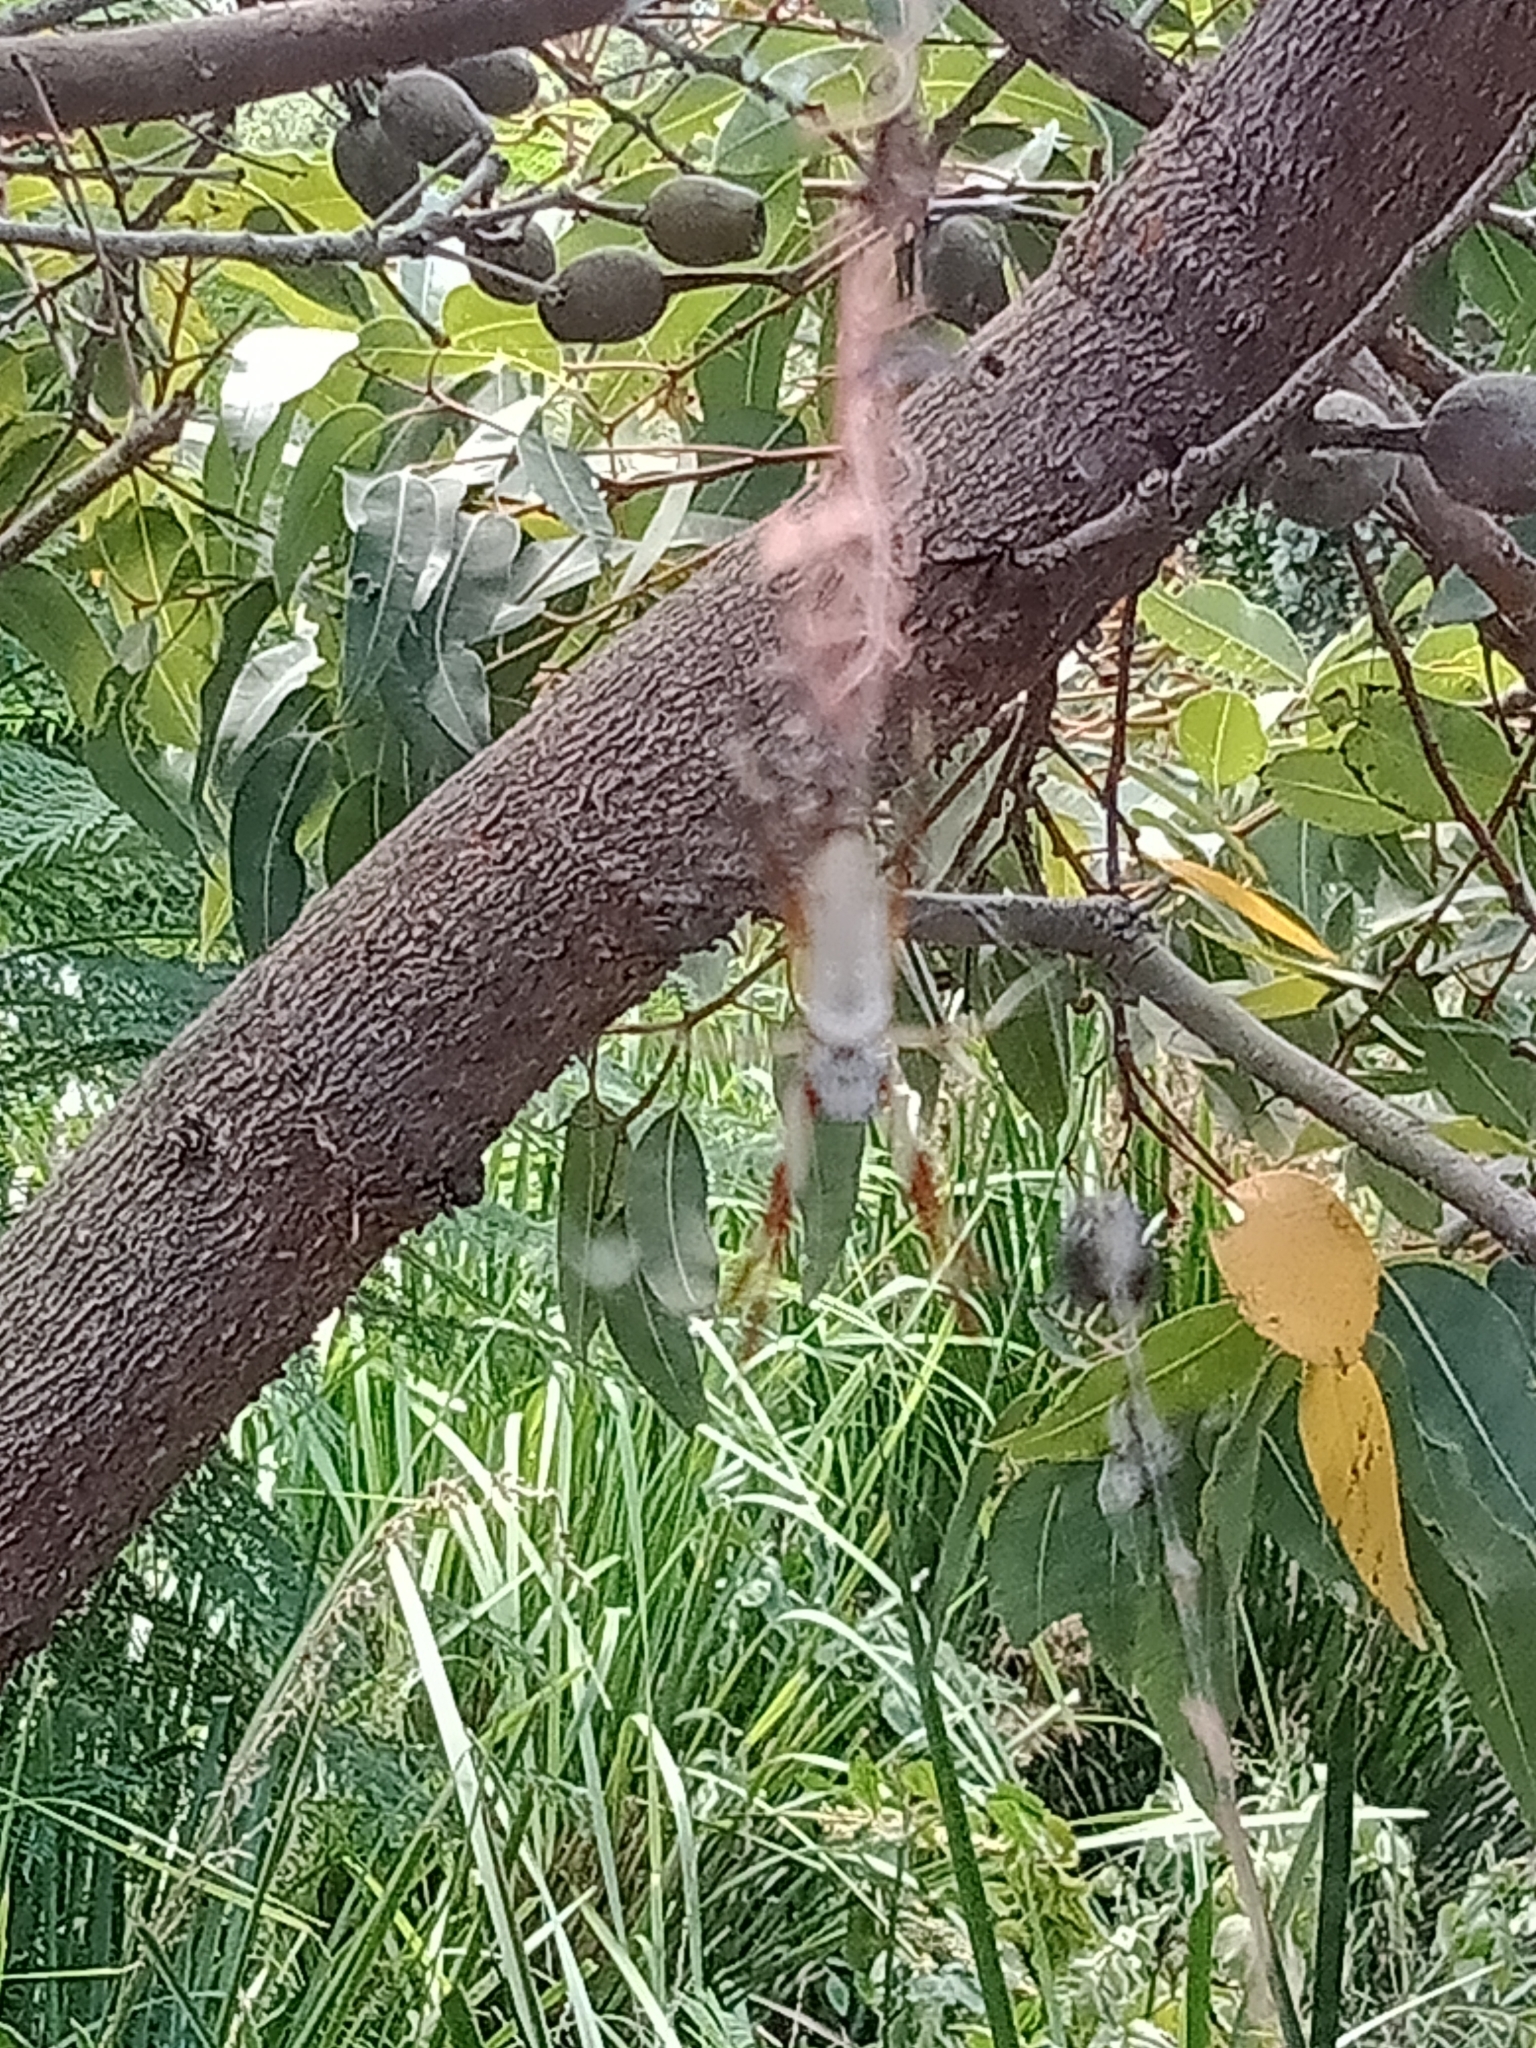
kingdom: Animalia
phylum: Arthropoda
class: Arachnida
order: Araneae
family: Araneidae
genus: Trichonephila
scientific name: Trichonephila edulis
